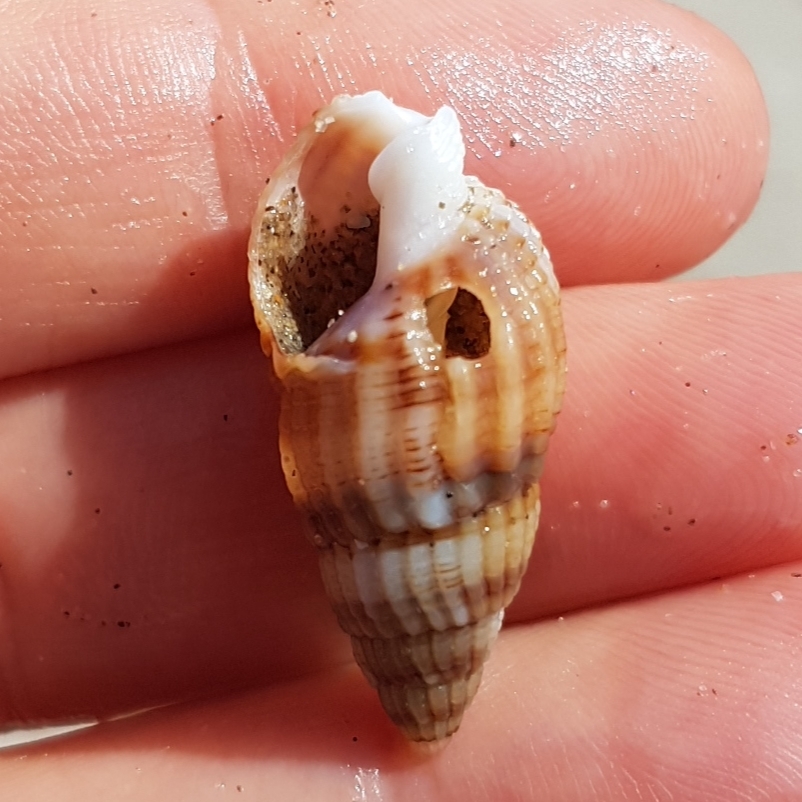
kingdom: Animalia
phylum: Mollusca
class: Gastropoda
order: Neogastropoda
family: Nassariidae
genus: Tritia
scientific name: Tritia reticulata
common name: Netted dog whelk
